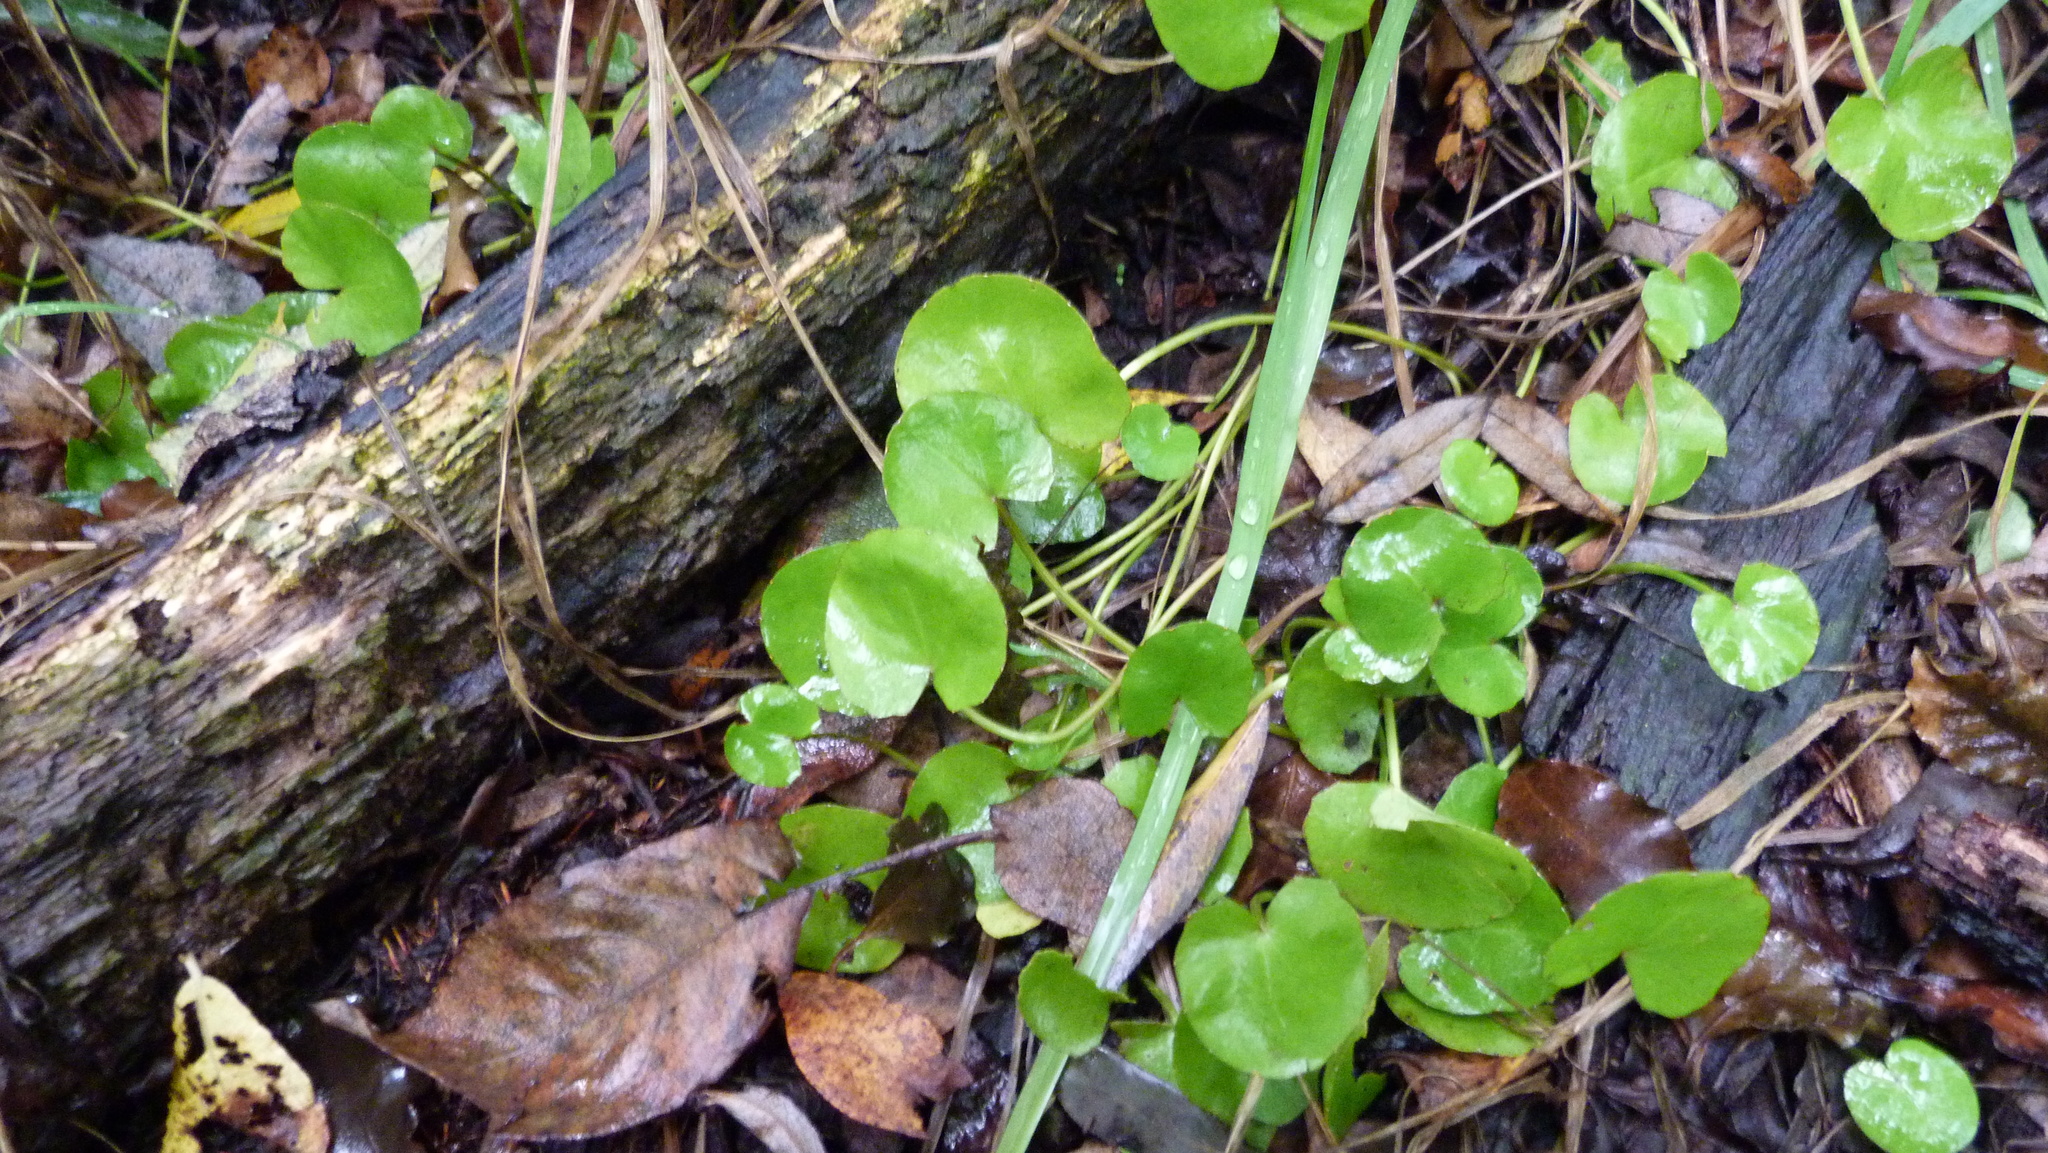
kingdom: Plantae
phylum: Tracheophyta
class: Magnoliopsida
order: Apiales
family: Apiaceae
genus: Centella
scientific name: Centella uniflora
